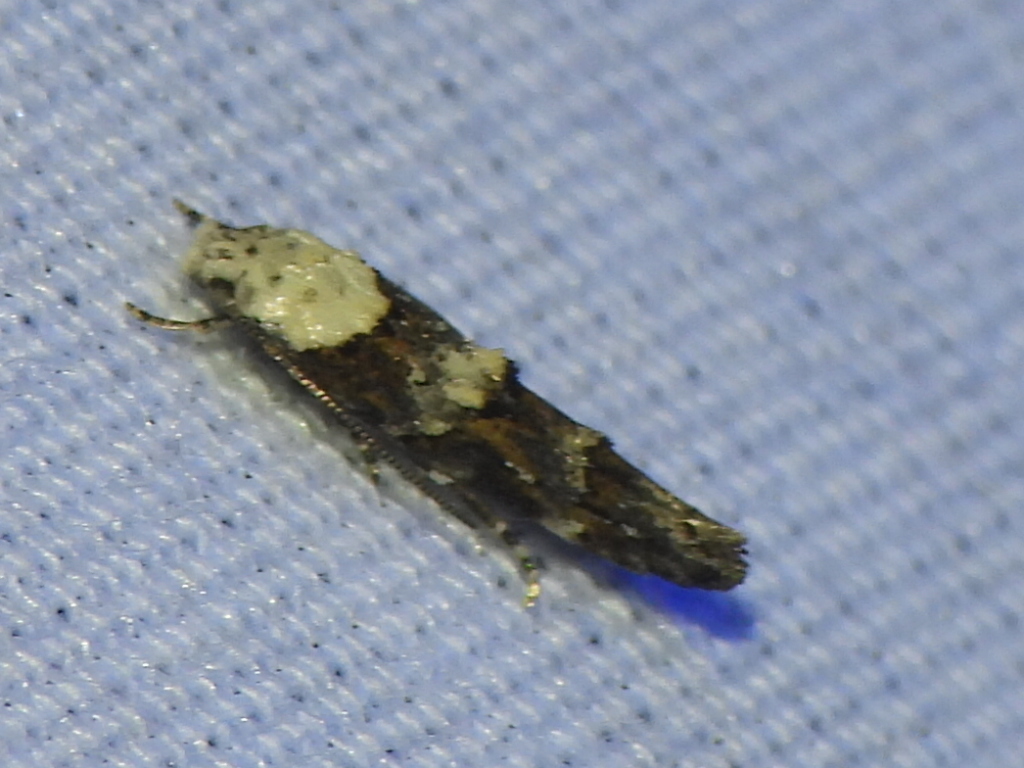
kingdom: Animalia
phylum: Arthropoda
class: Insecta
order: Lepidoptera
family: Momphidae
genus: Mompha
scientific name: Mompha albocapitella
